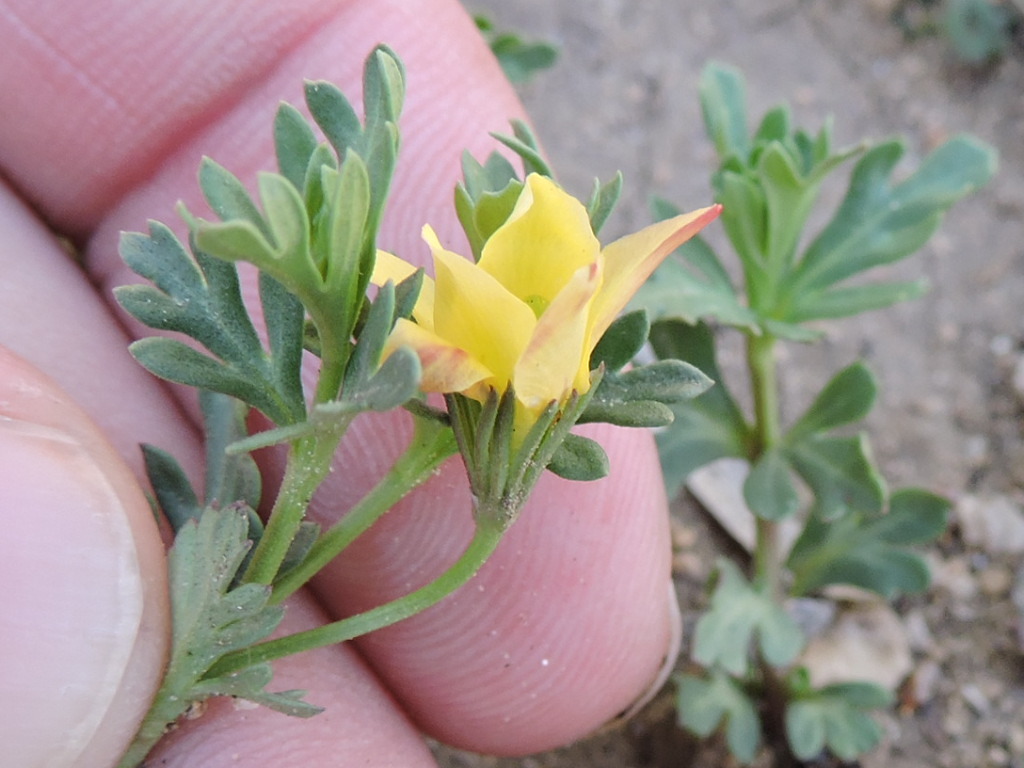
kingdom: Plantae
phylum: Tracheophyta
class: Magnoliopsida
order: Lamiales
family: Oleaceae
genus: Menodora
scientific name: Menodora heterophylla
